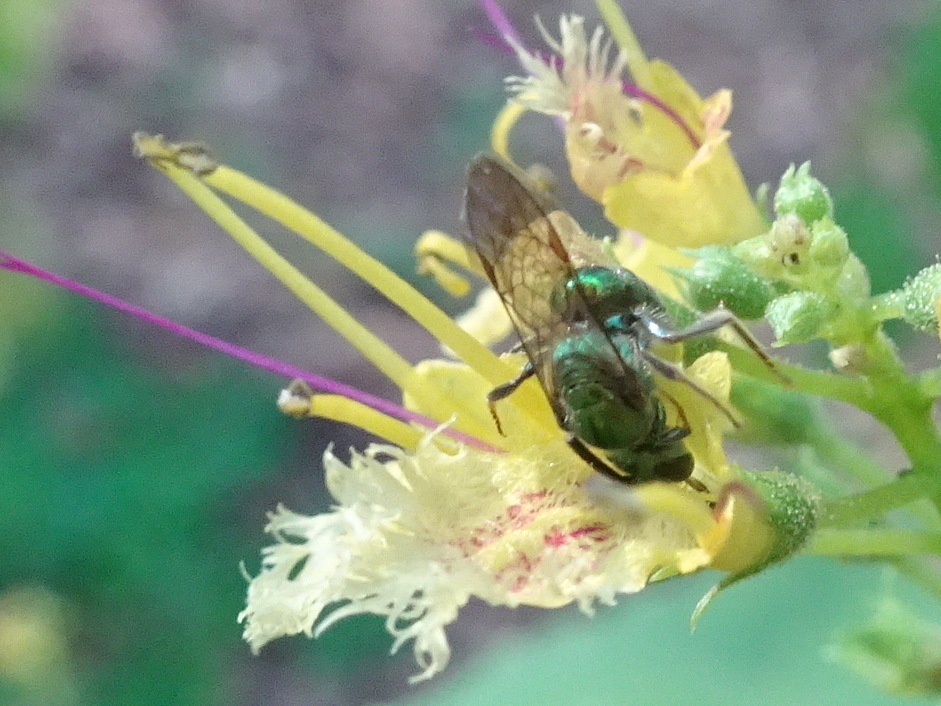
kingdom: Animalia
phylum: Arthropoda
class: Insecta
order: Hymenoptera
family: Halictidae
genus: Augochlora
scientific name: Augochlora pura
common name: Pure green sweat bee
